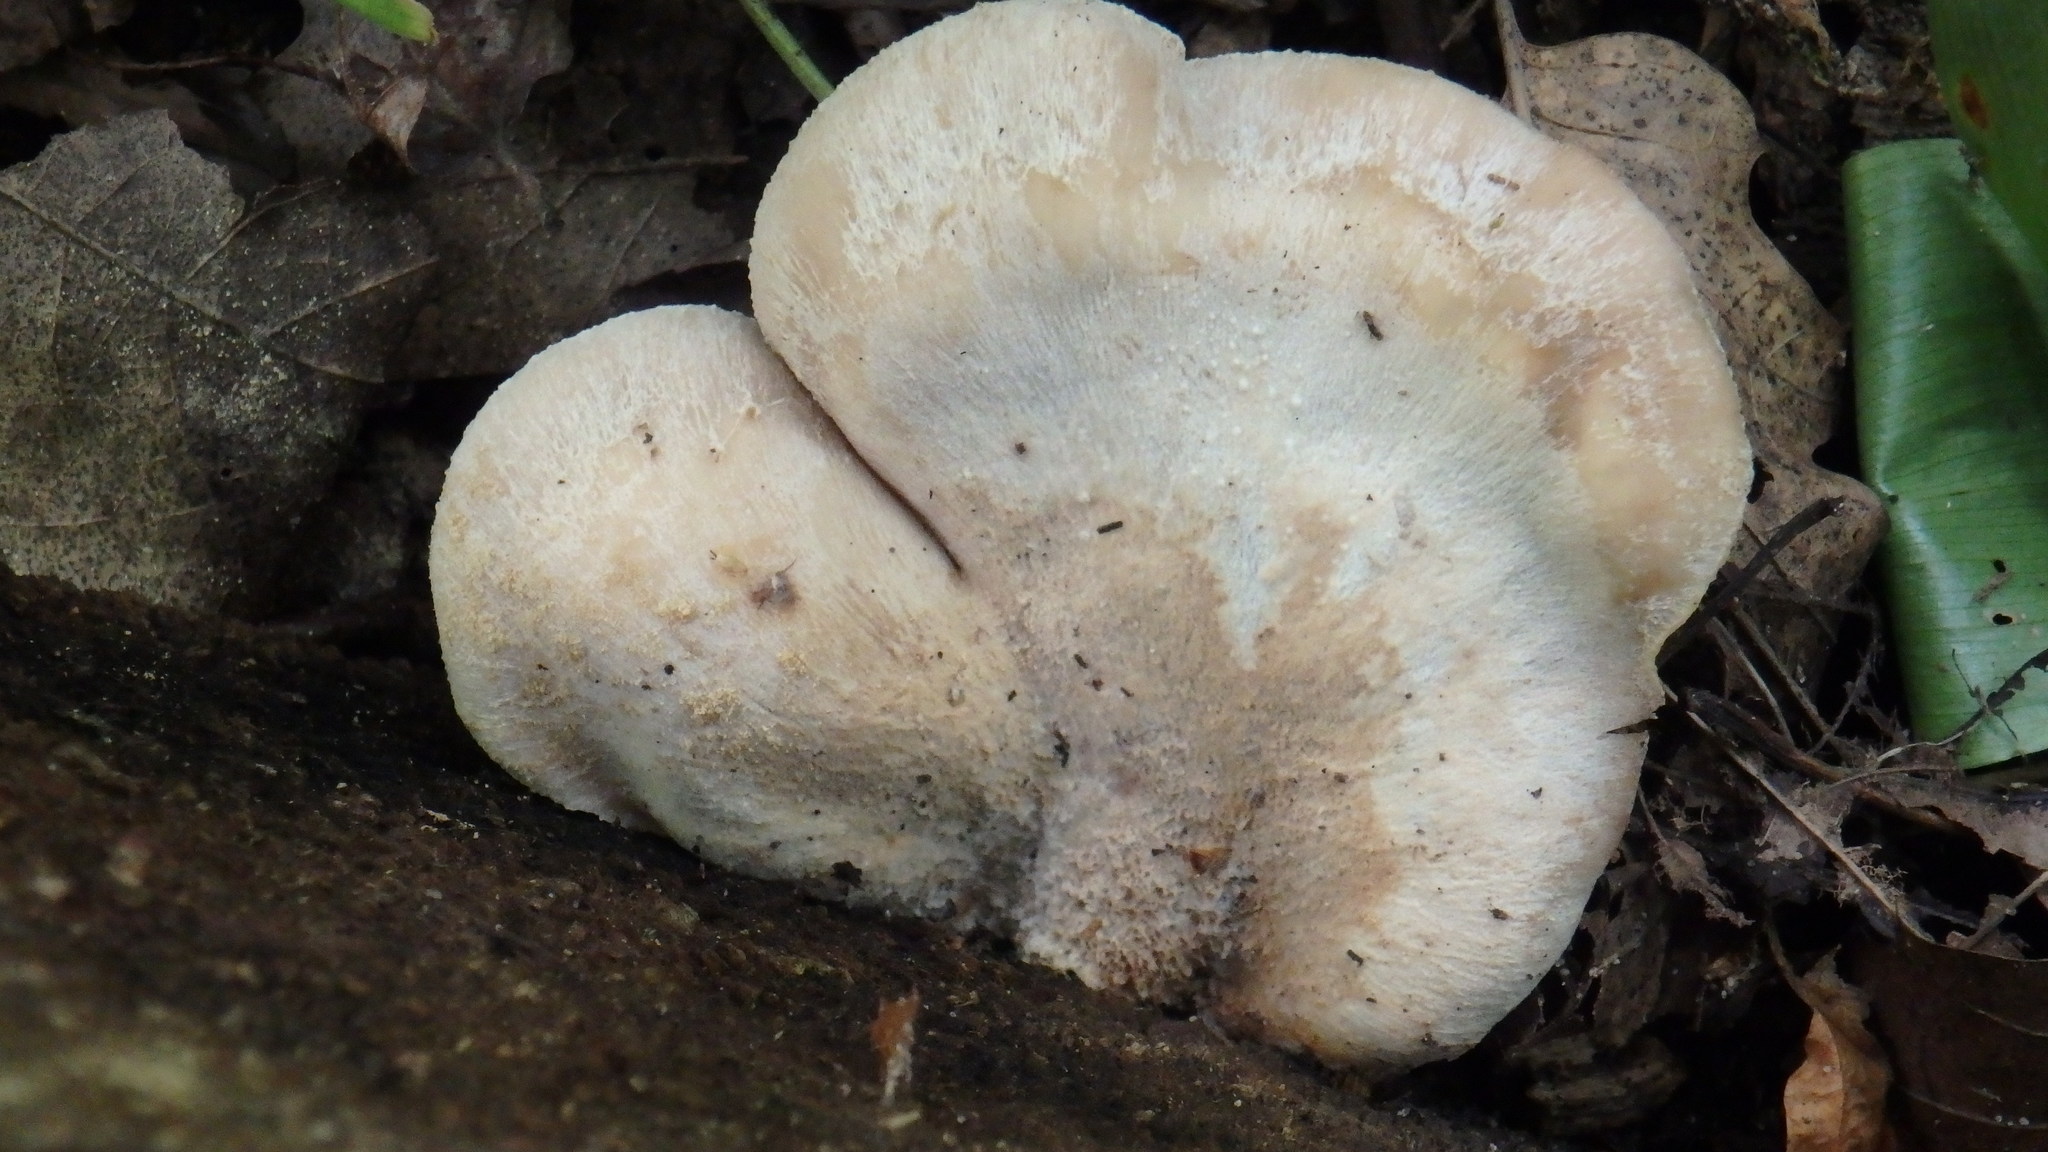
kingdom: Fungi
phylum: Basidiomycota
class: Agaricomycetes
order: Russulales
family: Auriscalpiaceae
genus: Lentinellus
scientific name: Lentinellus ursinus
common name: Bear lentinus
